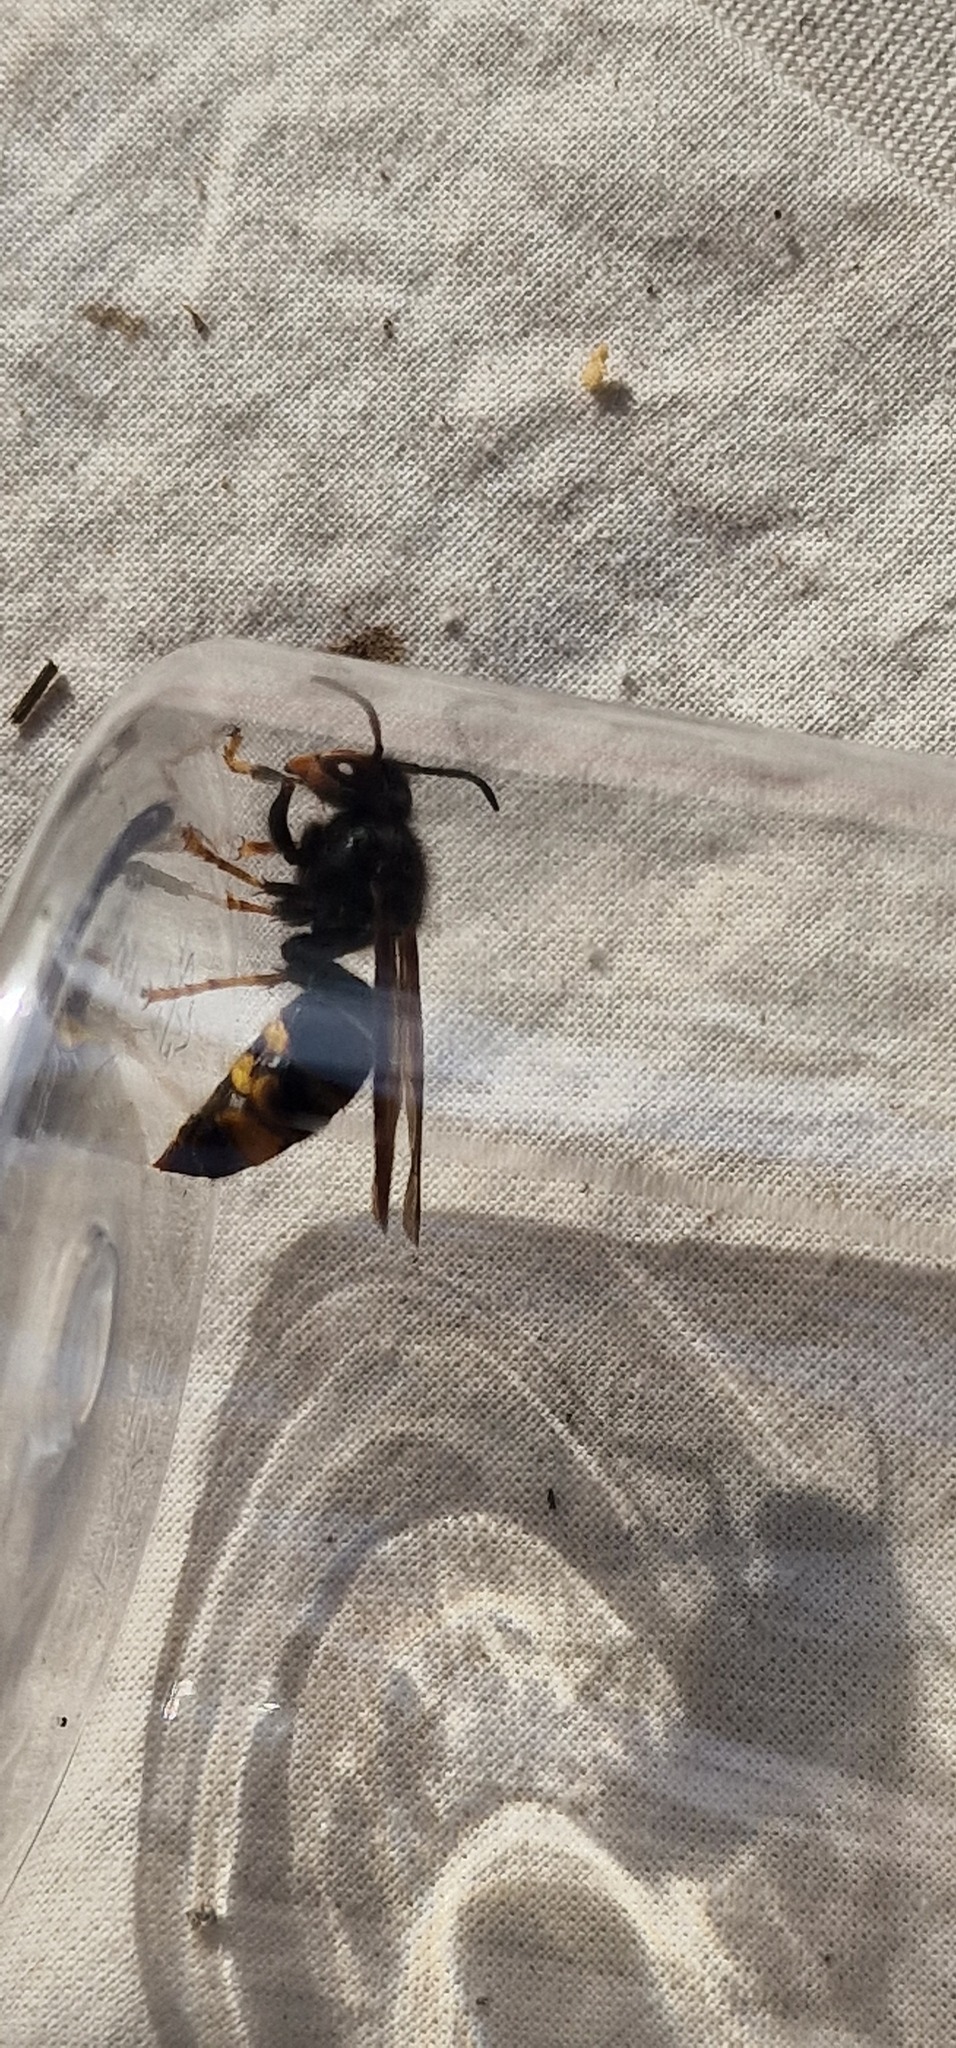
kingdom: Animalia
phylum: Arthropoda
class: Insecta
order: Hymenoptera
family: Vespidae
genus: Vespa
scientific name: Vespa velutina
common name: Asian hornet
